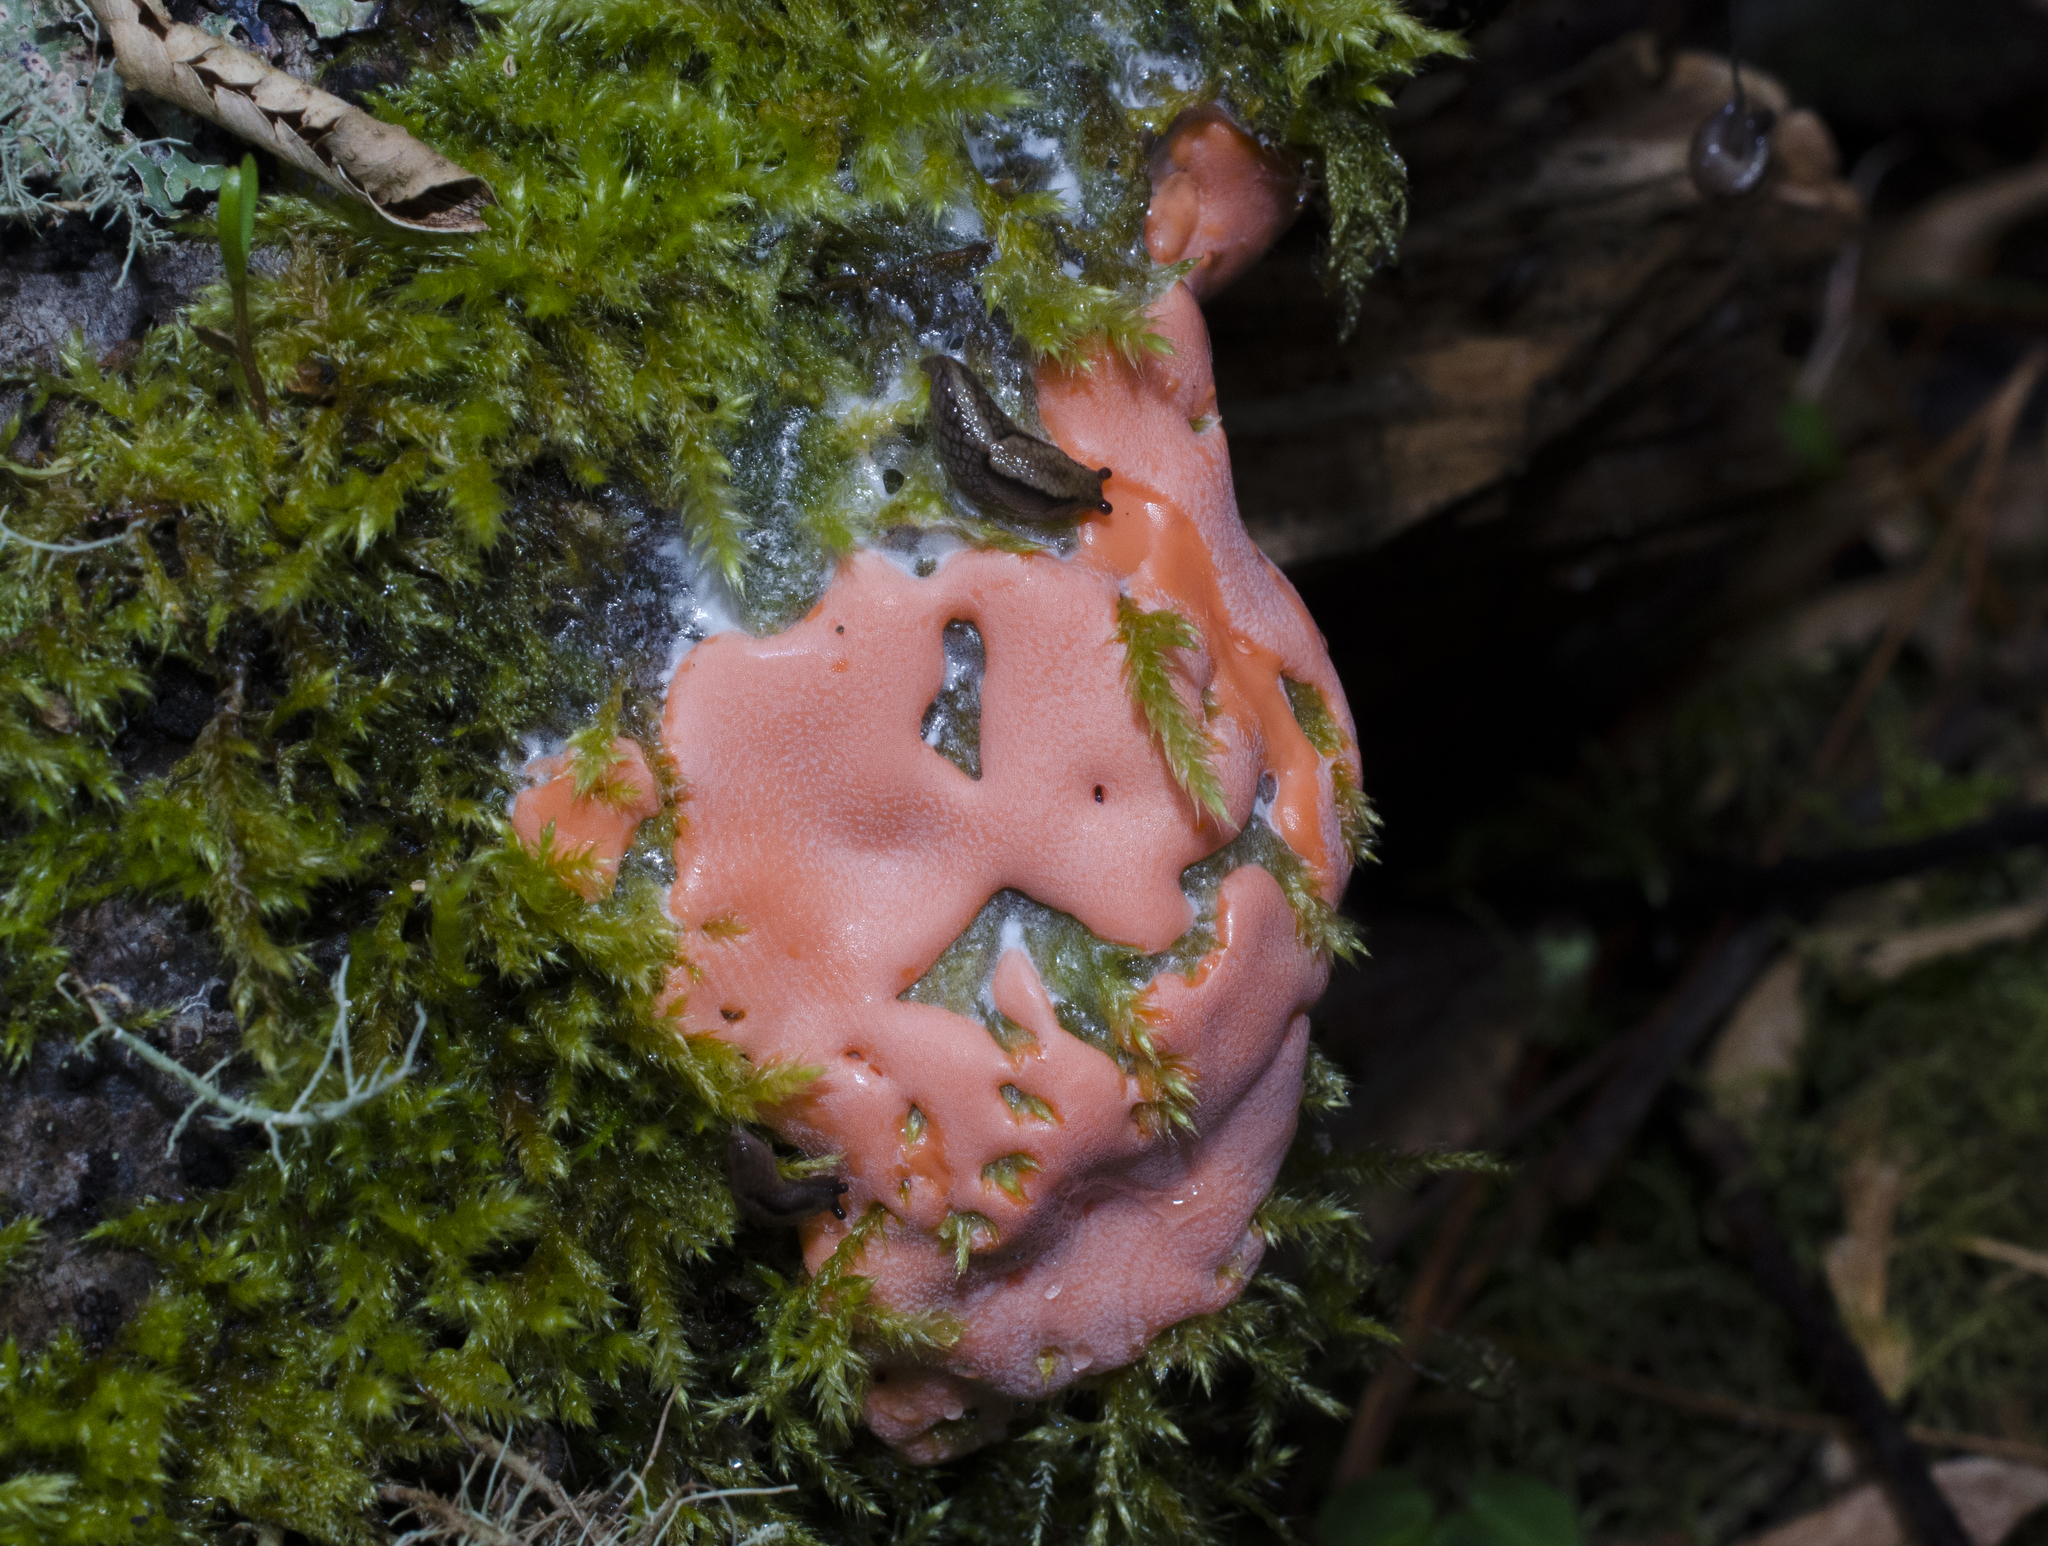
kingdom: Protozoa
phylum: Mycetozoa
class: Myxomycetes
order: Trichiales
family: Dictydiaethaliaceae
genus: Dictydiaethalium
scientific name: Dictydiaethalium plumbeum
